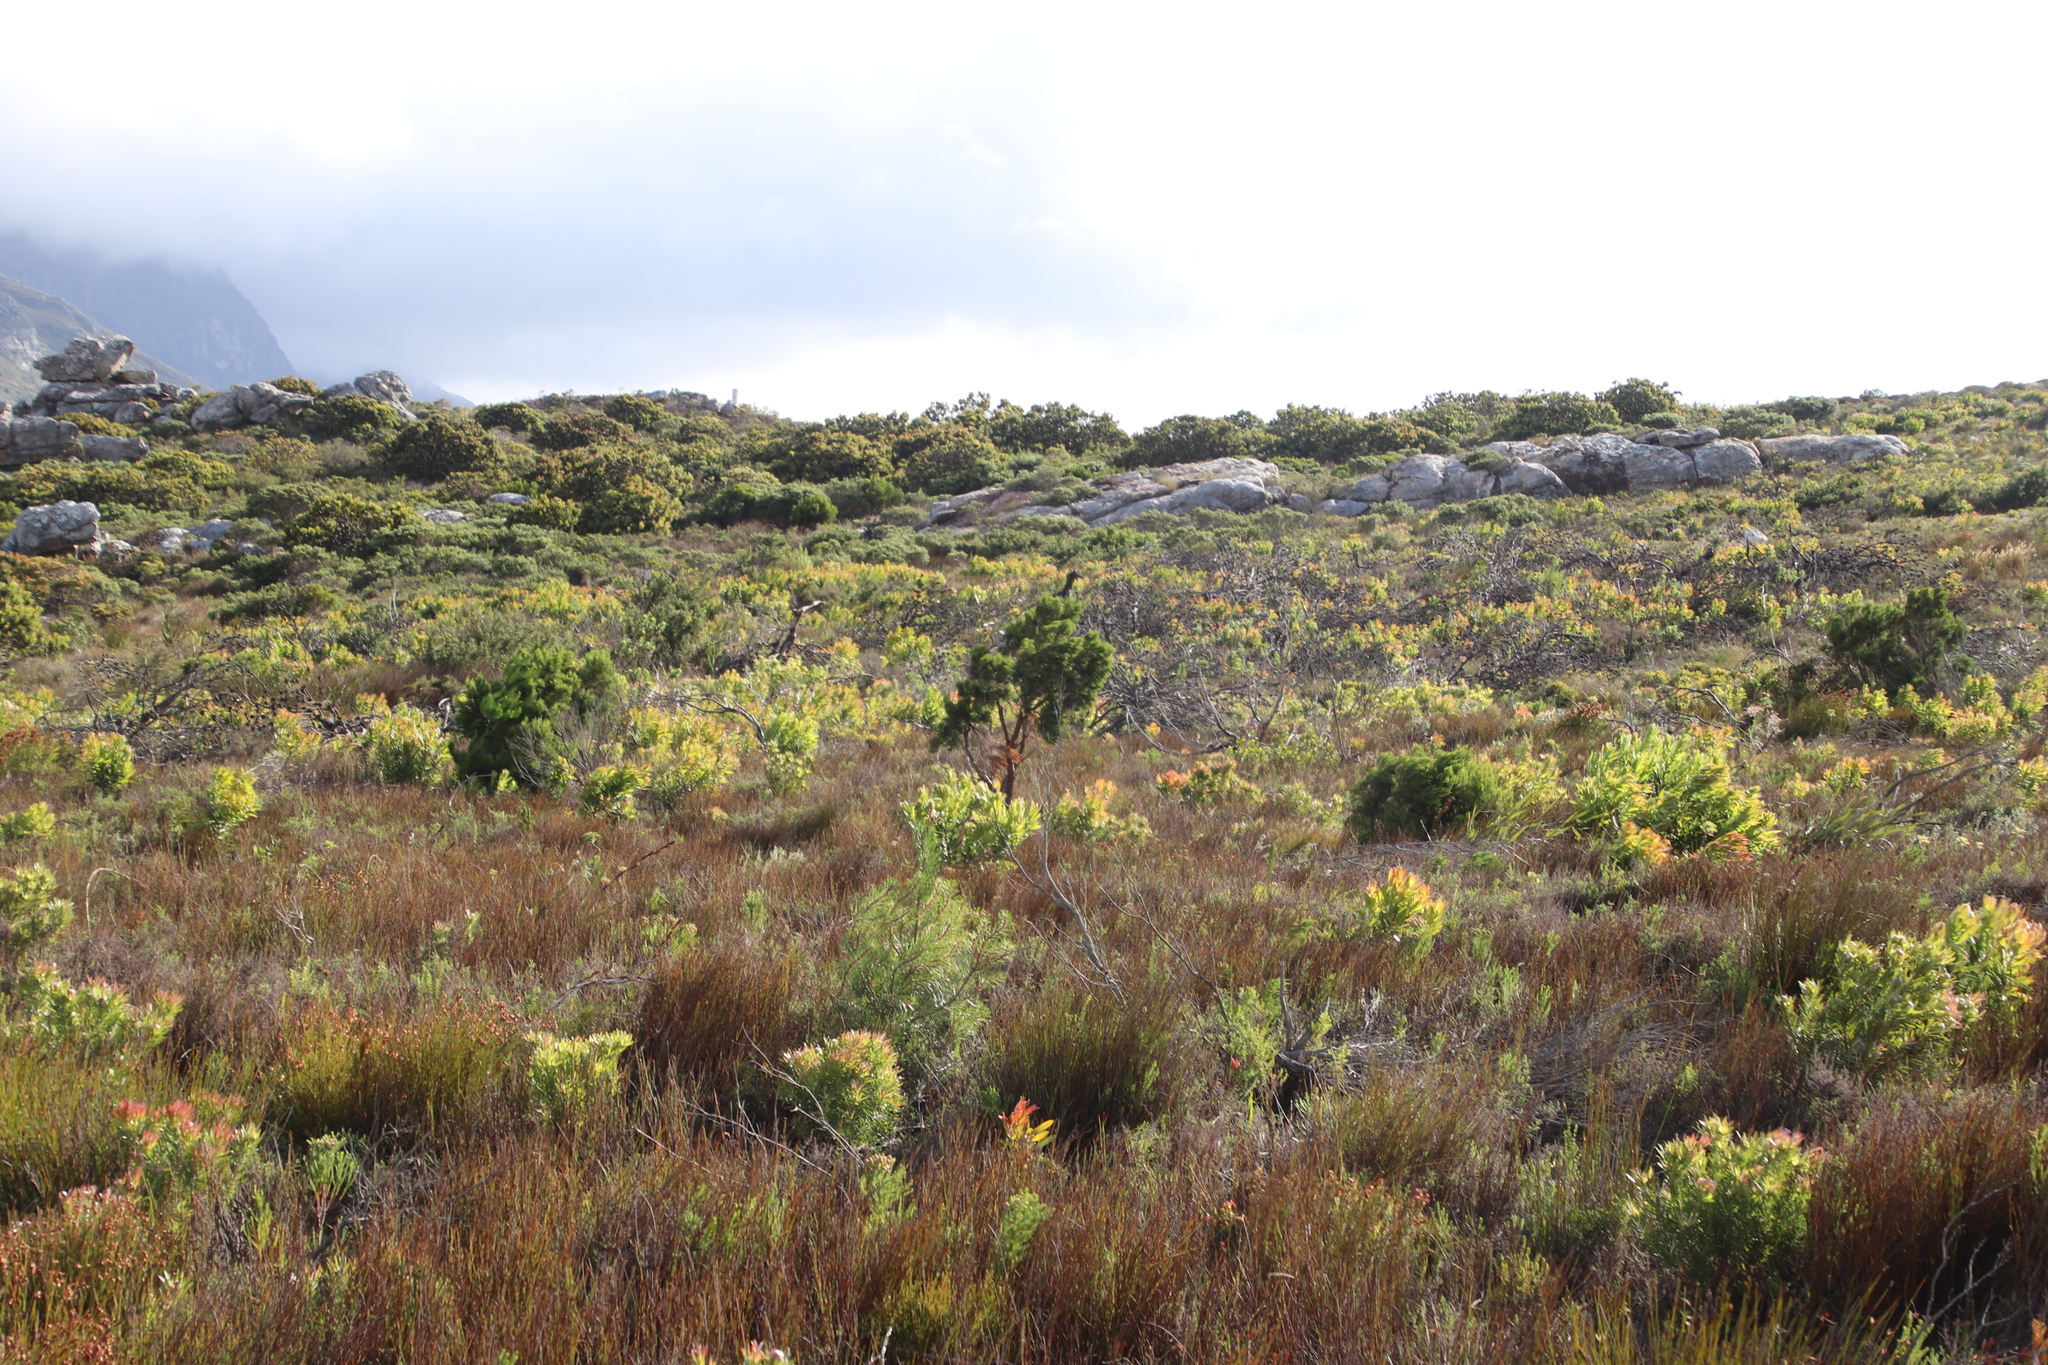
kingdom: Plantae
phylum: Tracheophyta
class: Magnoliopsida
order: Ericales
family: Ericaceae
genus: Erica
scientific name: Erica tristis
